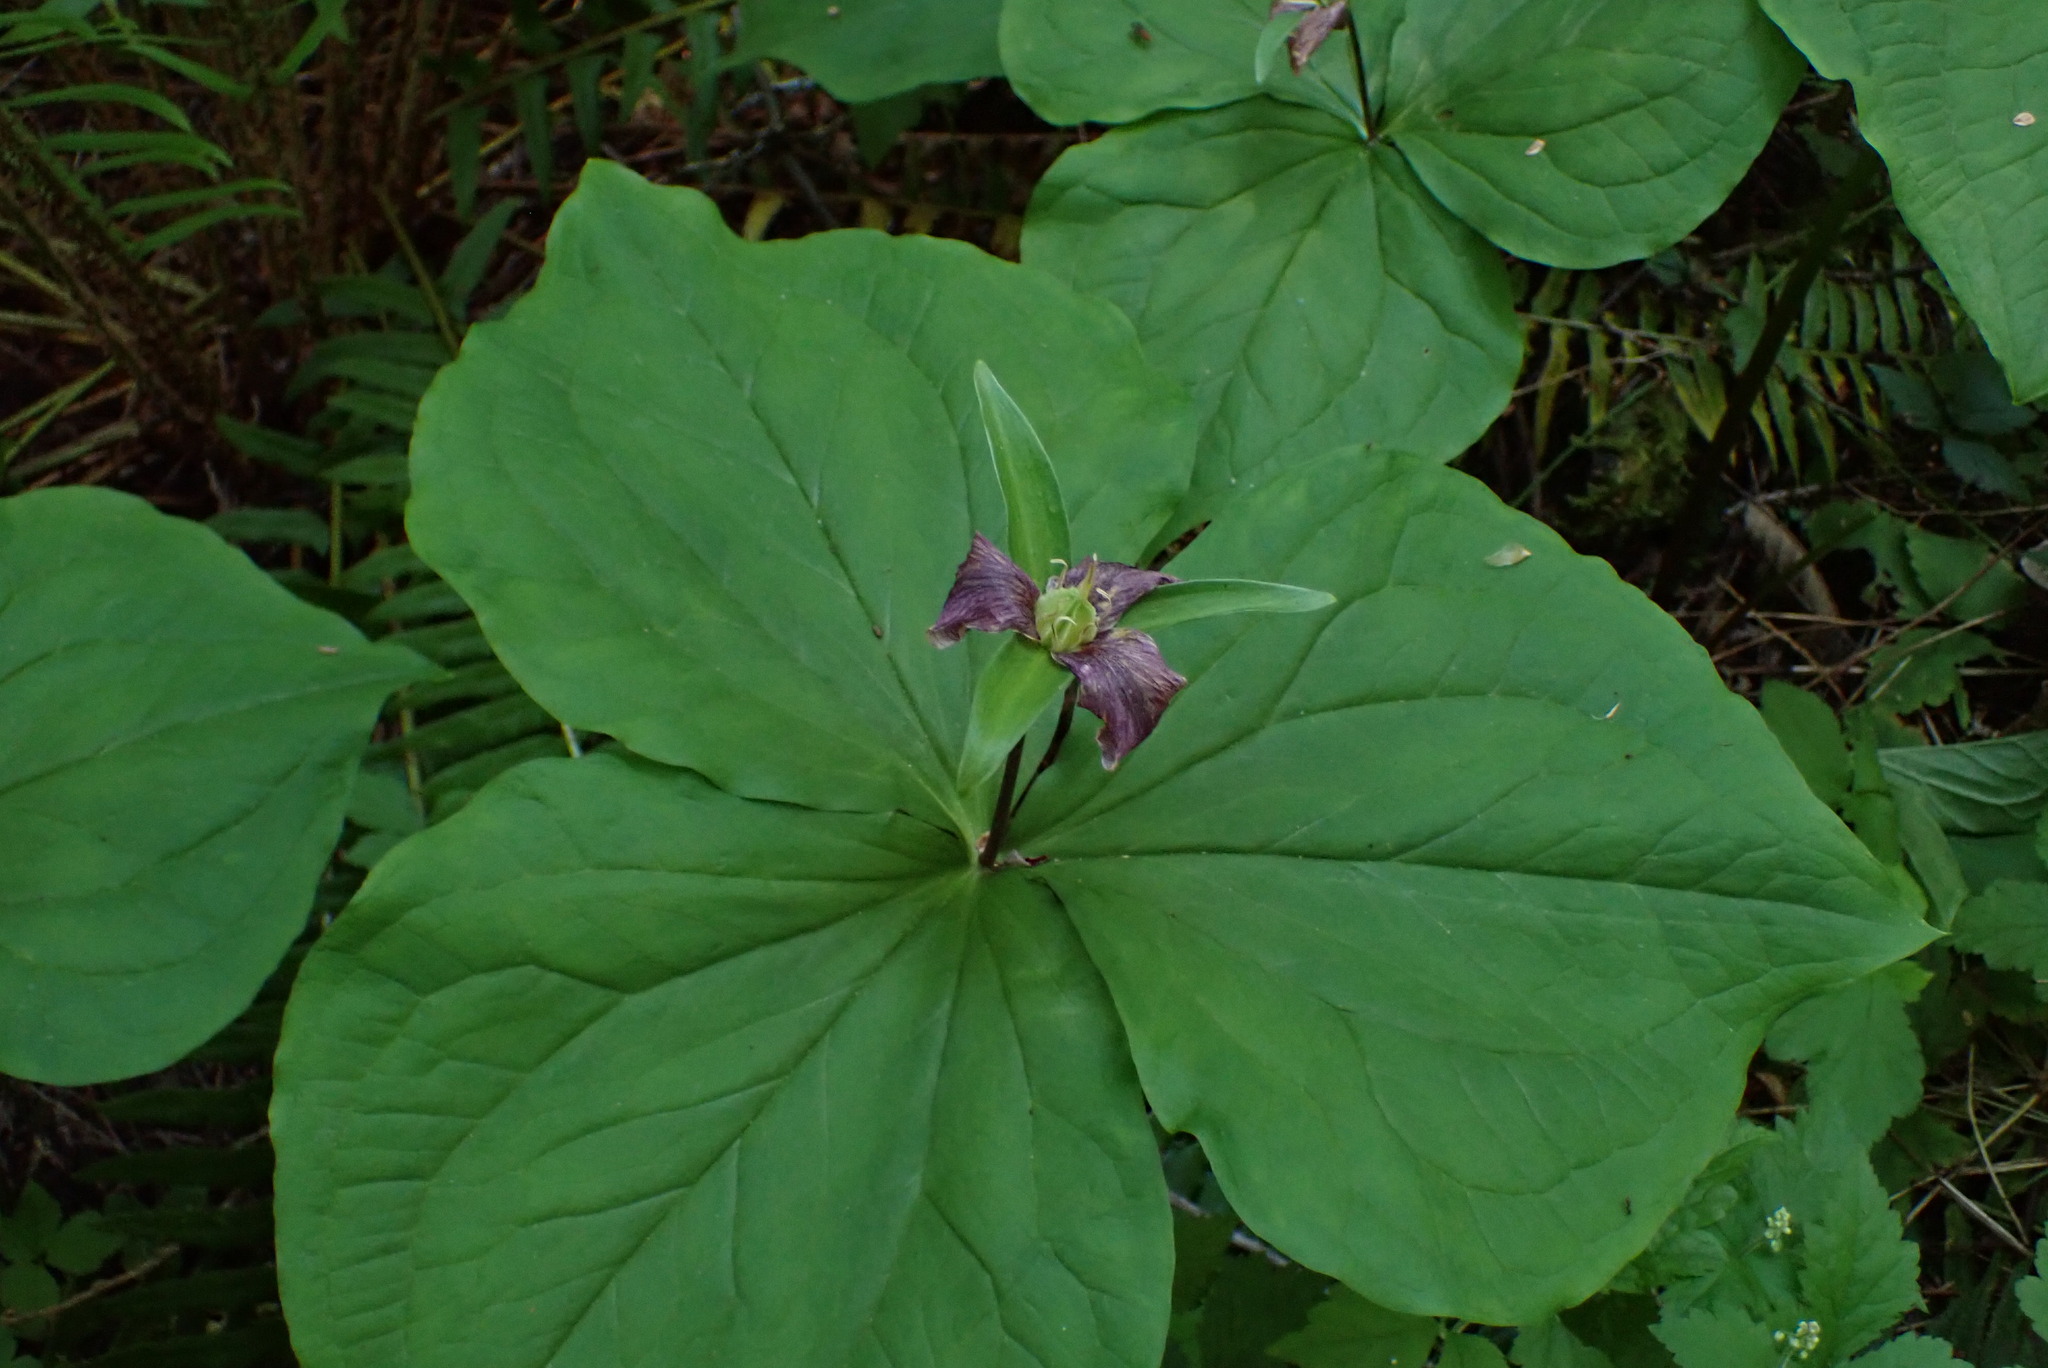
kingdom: Plantae
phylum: Tracheophyta
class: Liliopsida
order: Liliales
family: Melanthiaceae
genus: Trillium
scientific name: Trillium ovatum
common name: Pacific trillium
